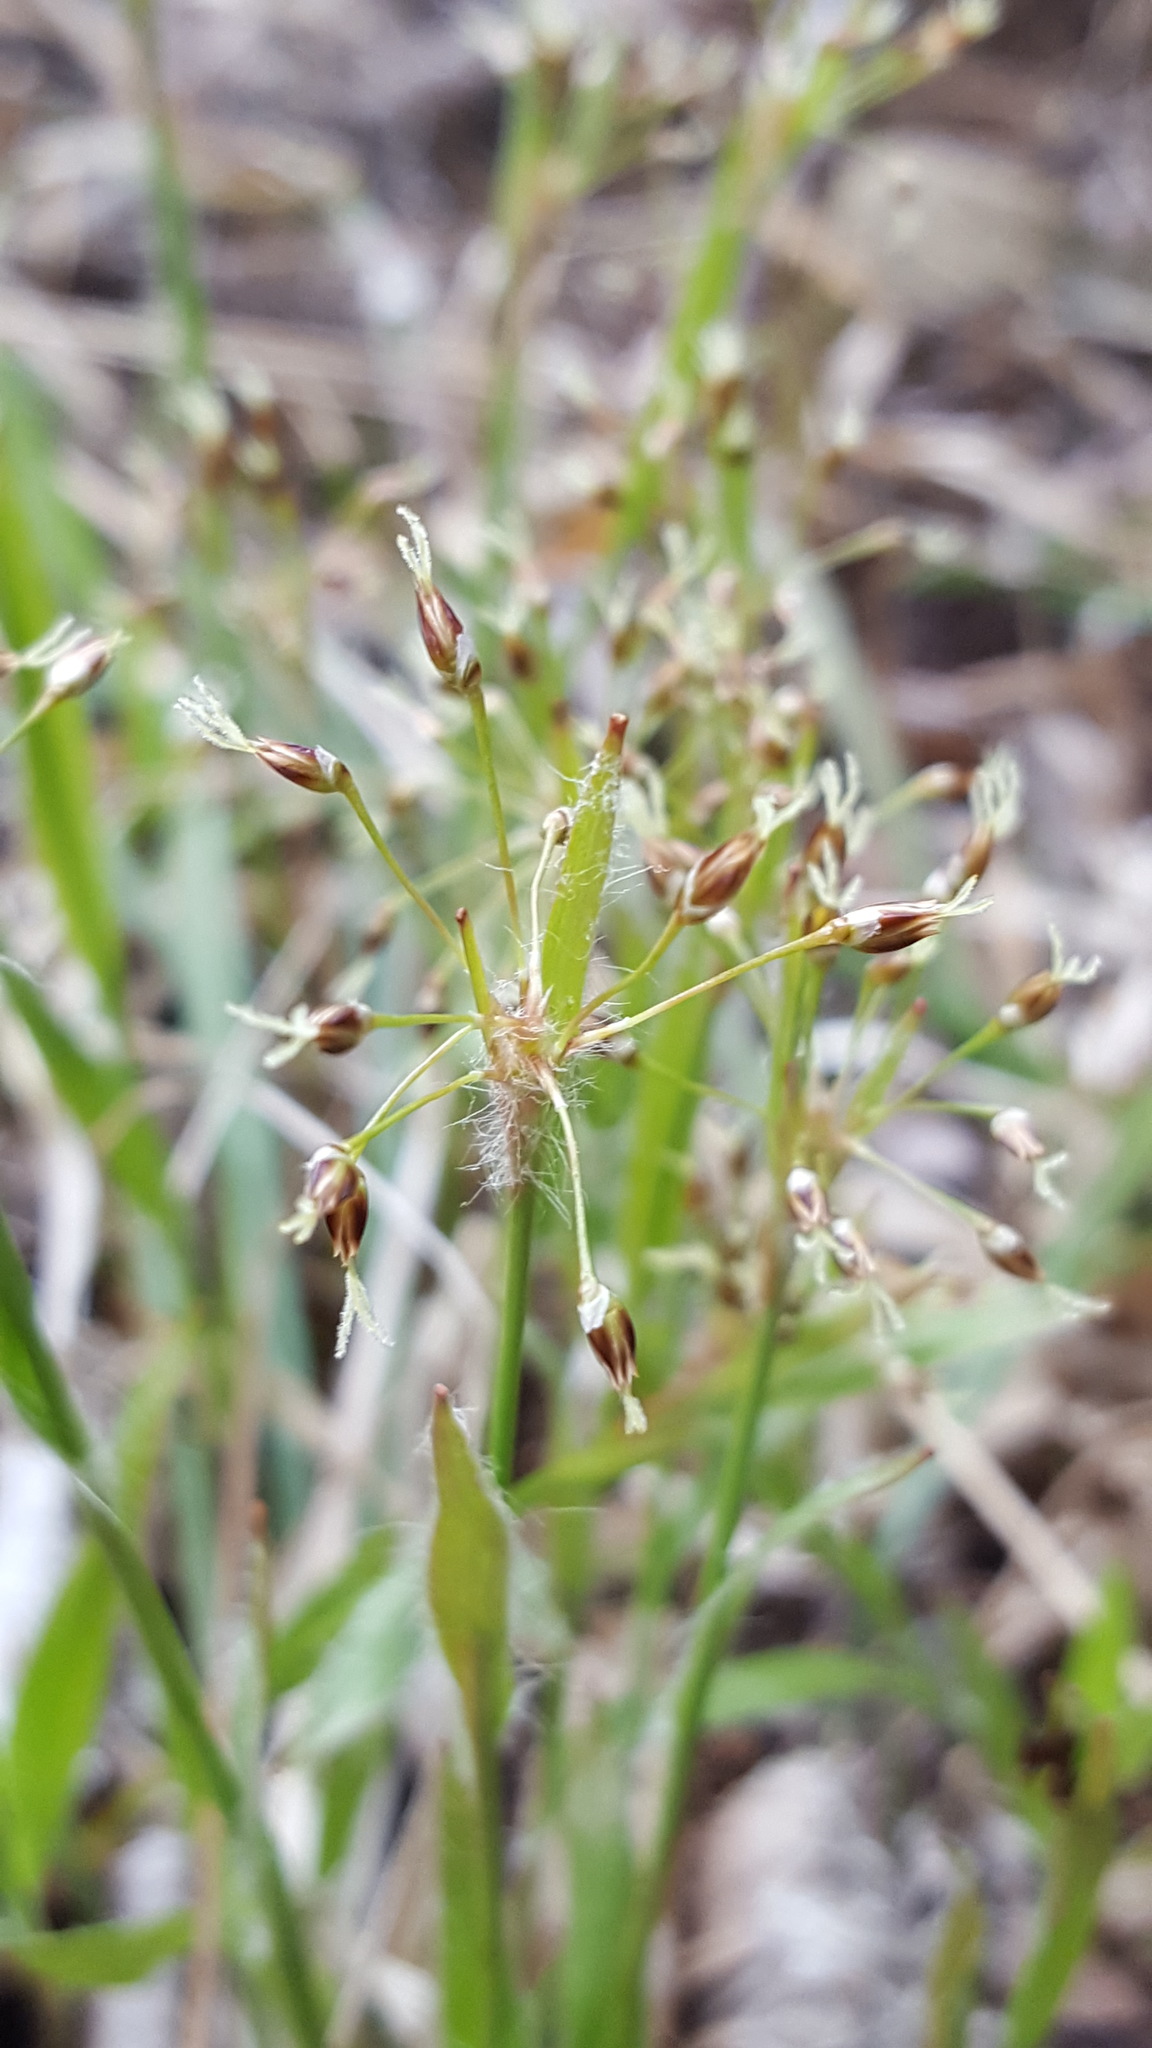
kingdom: Plantae
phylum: Tracheophyta
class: Liliopsida
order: Poales
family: Juncaceae
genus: Luzula
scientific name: Luzula acuminata
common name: Hairy woodrush
